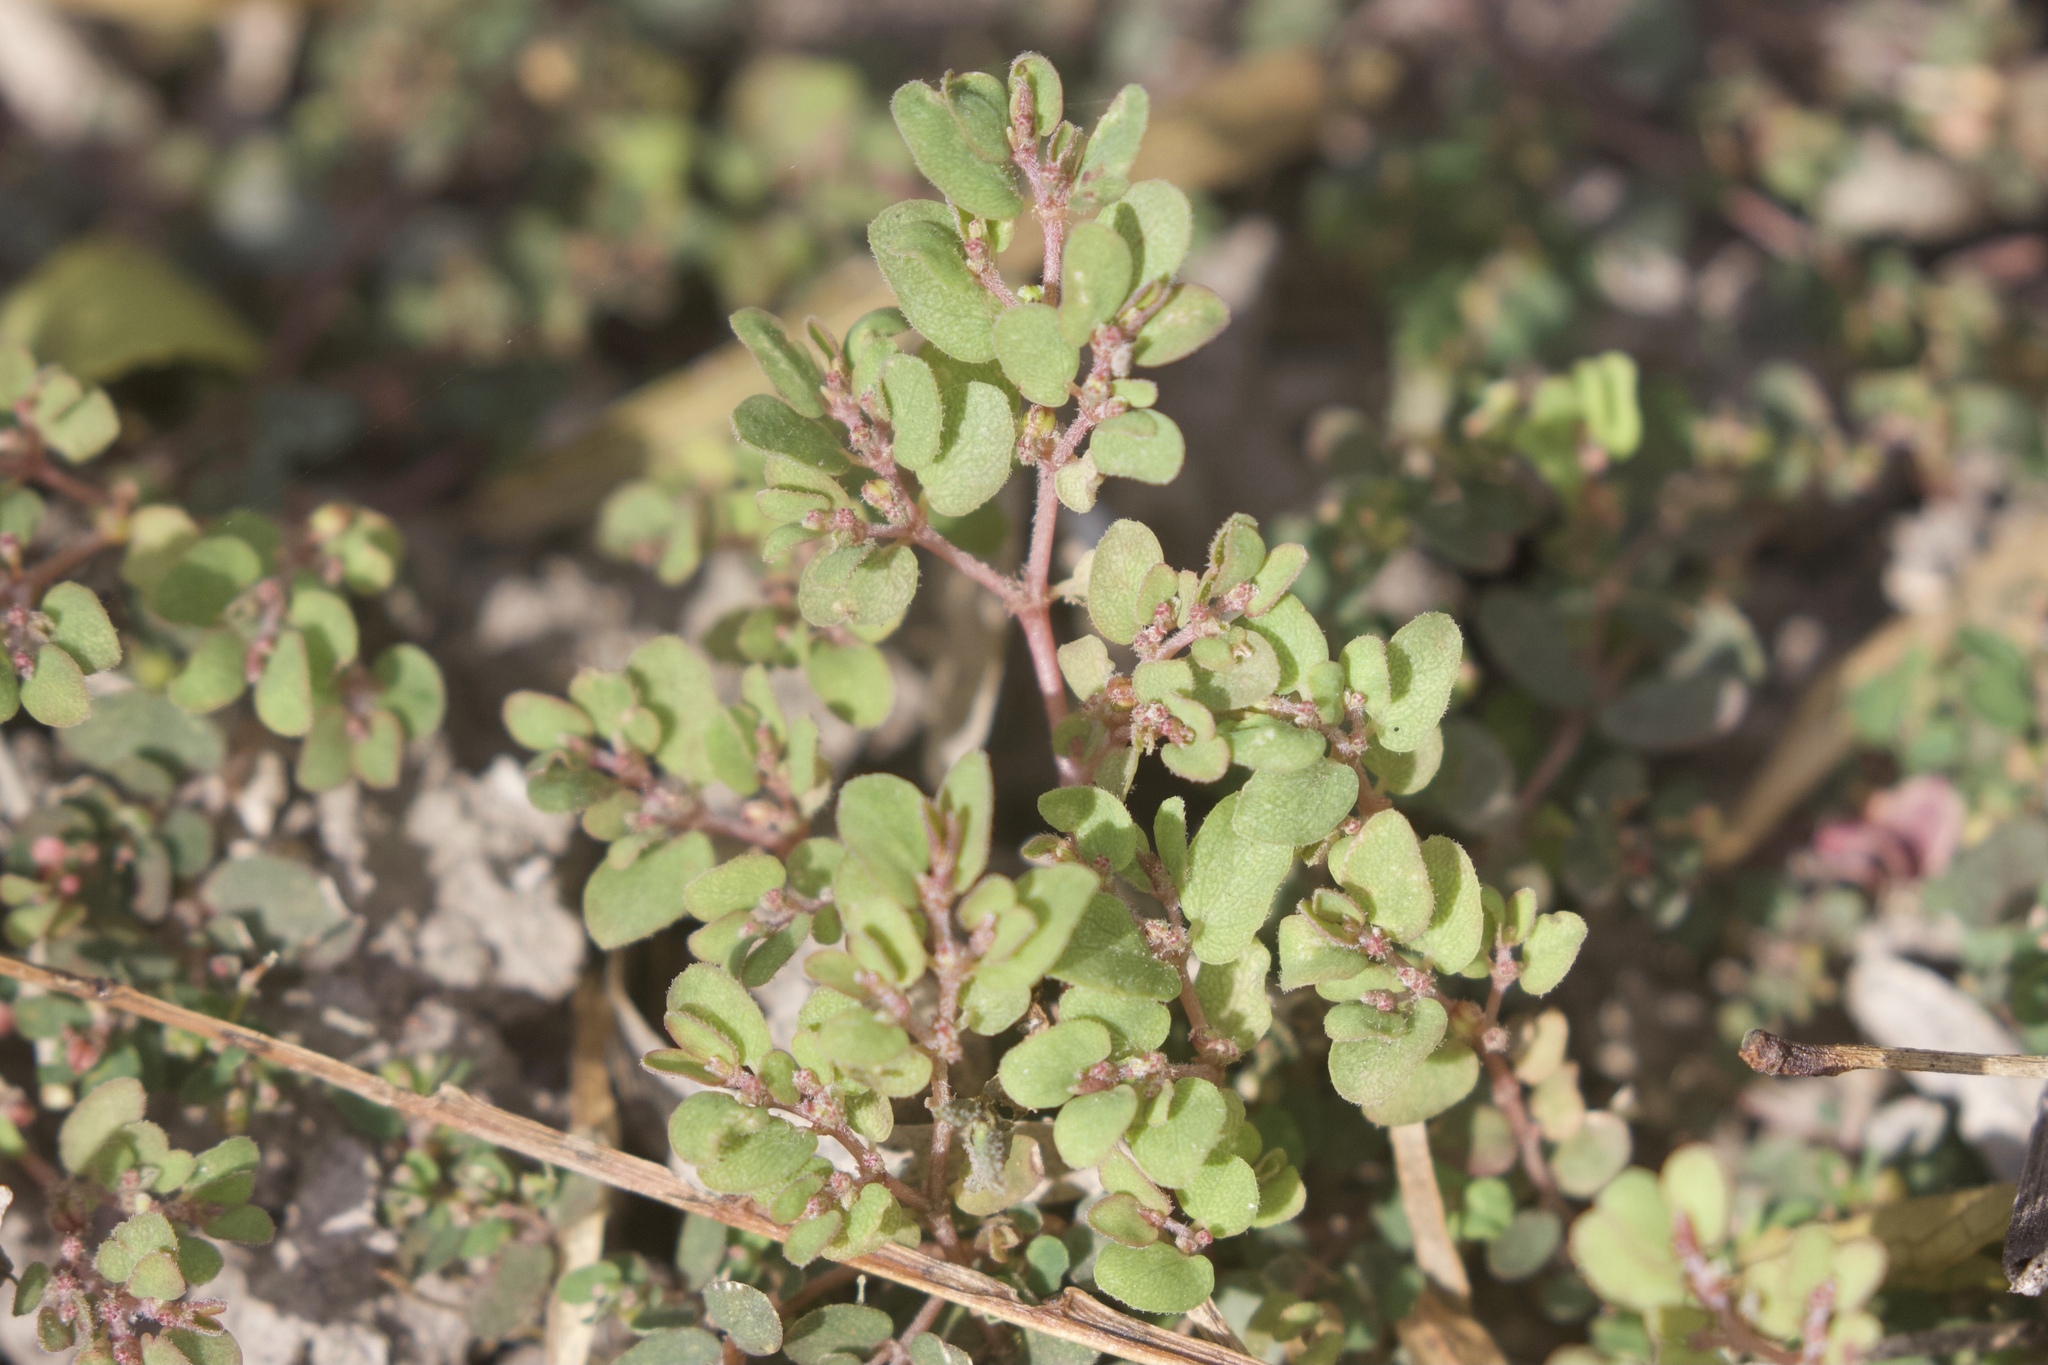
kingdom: Plantae
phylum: Tracheophyta
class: Magnoliopsida
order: Malpighiales
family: Euphorbiaceae
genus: Euphorbia
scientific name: Euphorbia prostrata
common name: Prostrate sandmat
